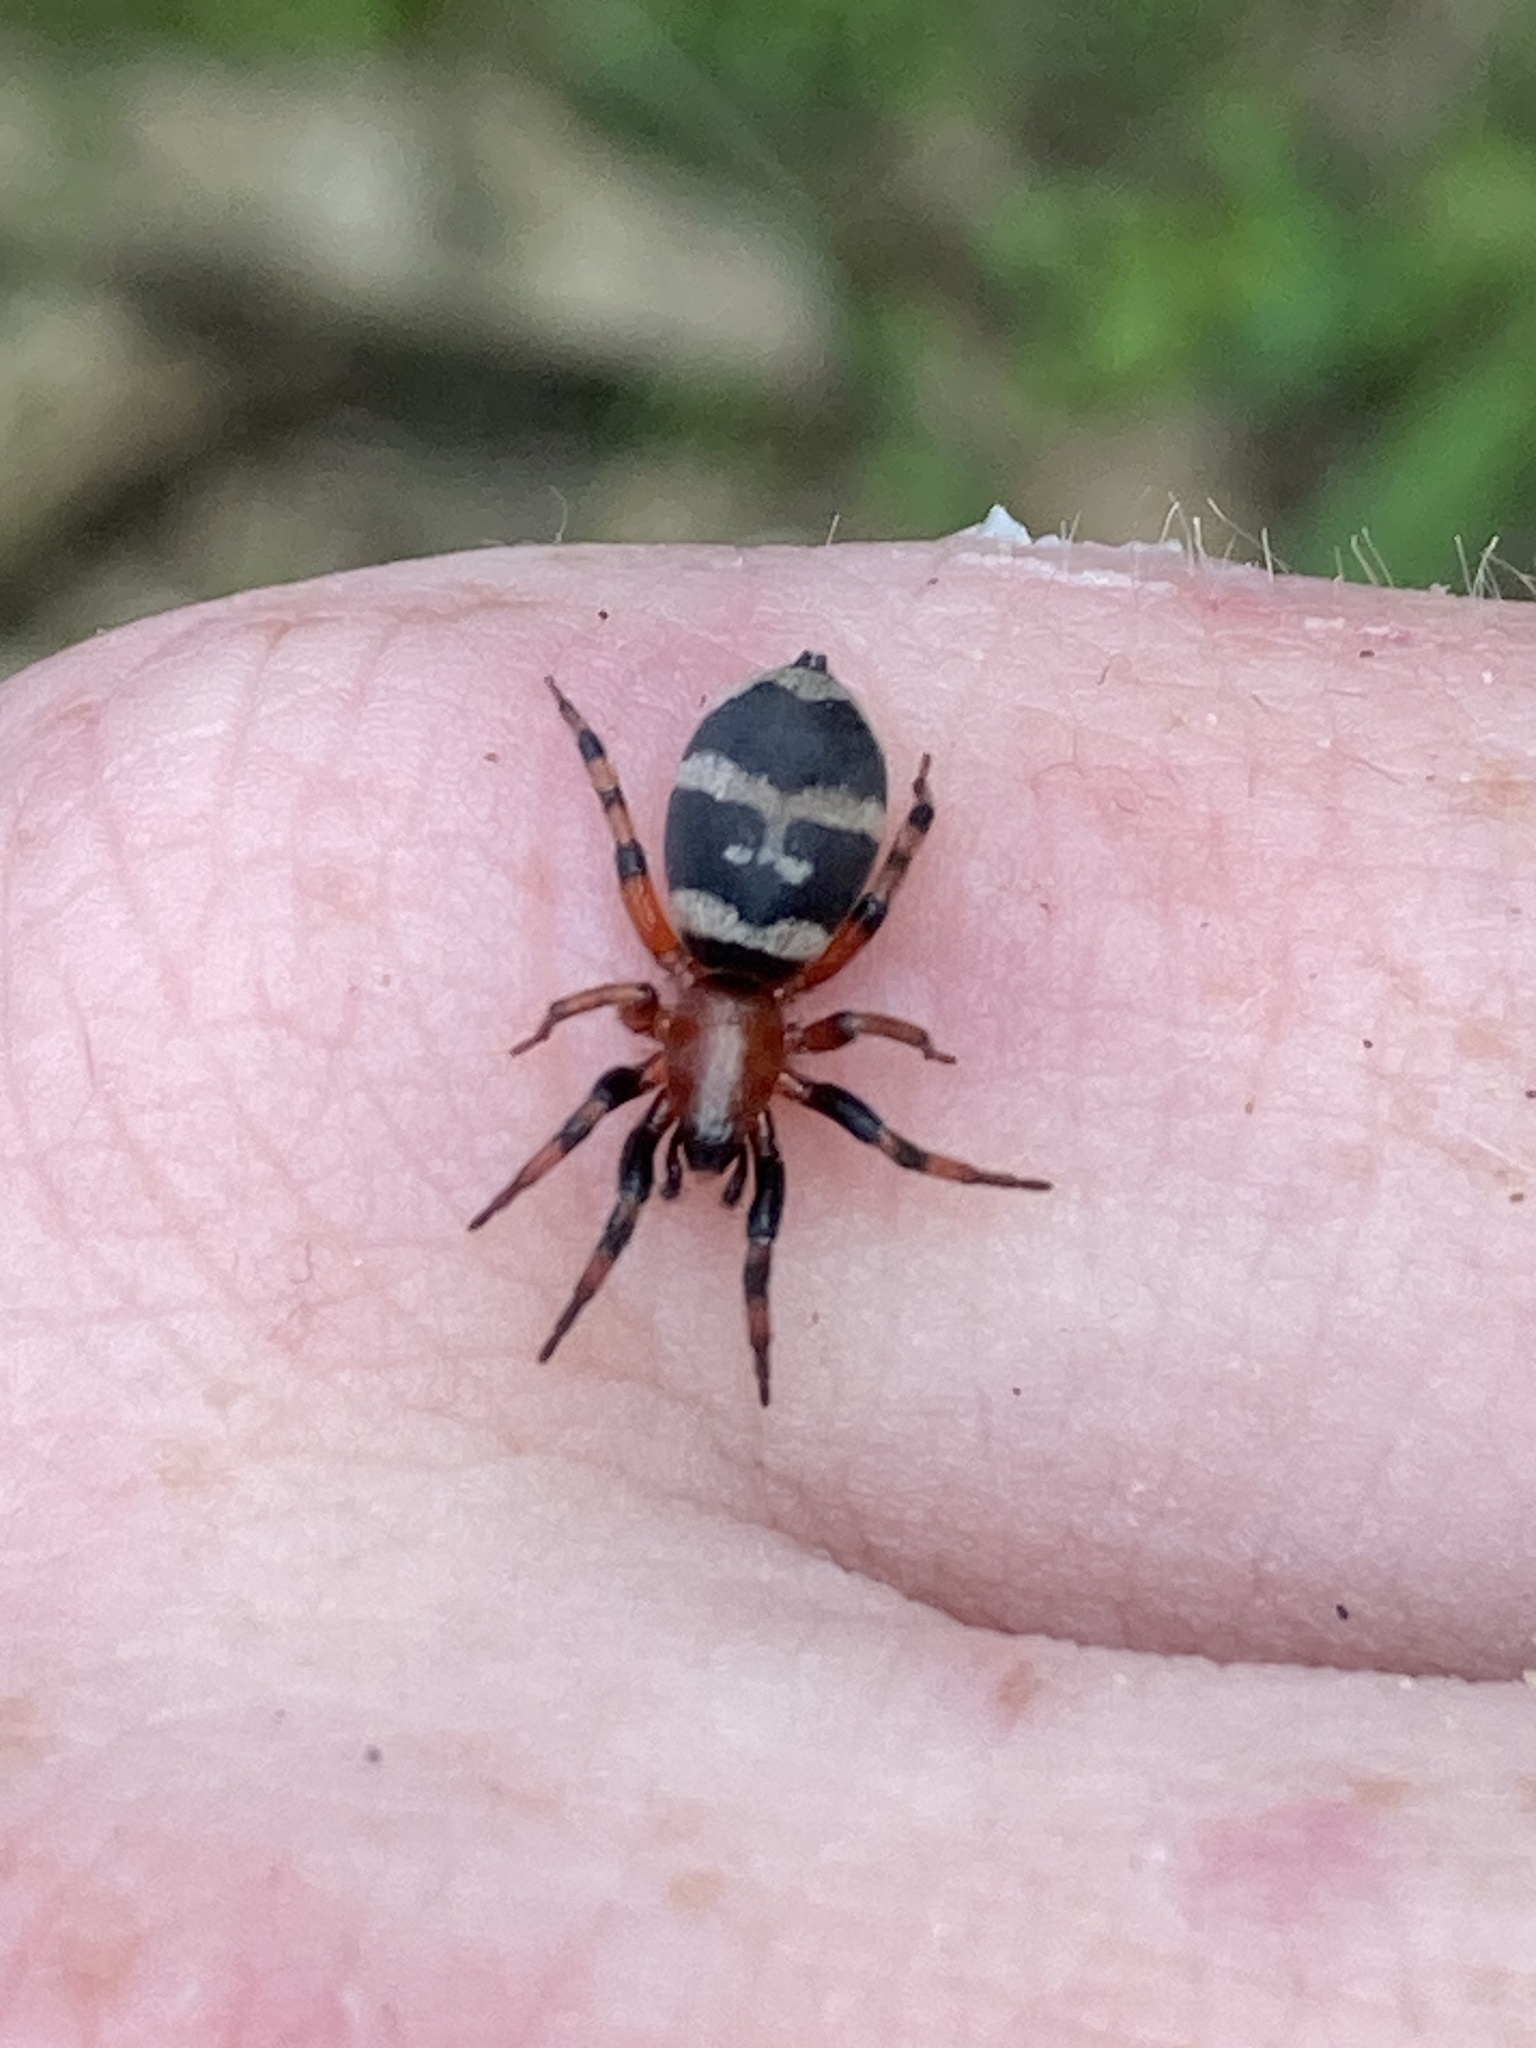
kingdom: Animalia
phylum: Arthropoda
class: Arachnida
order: Araneae
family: Gnaphosidae
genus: Sergiolus
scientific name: Sergiolus capulatus
